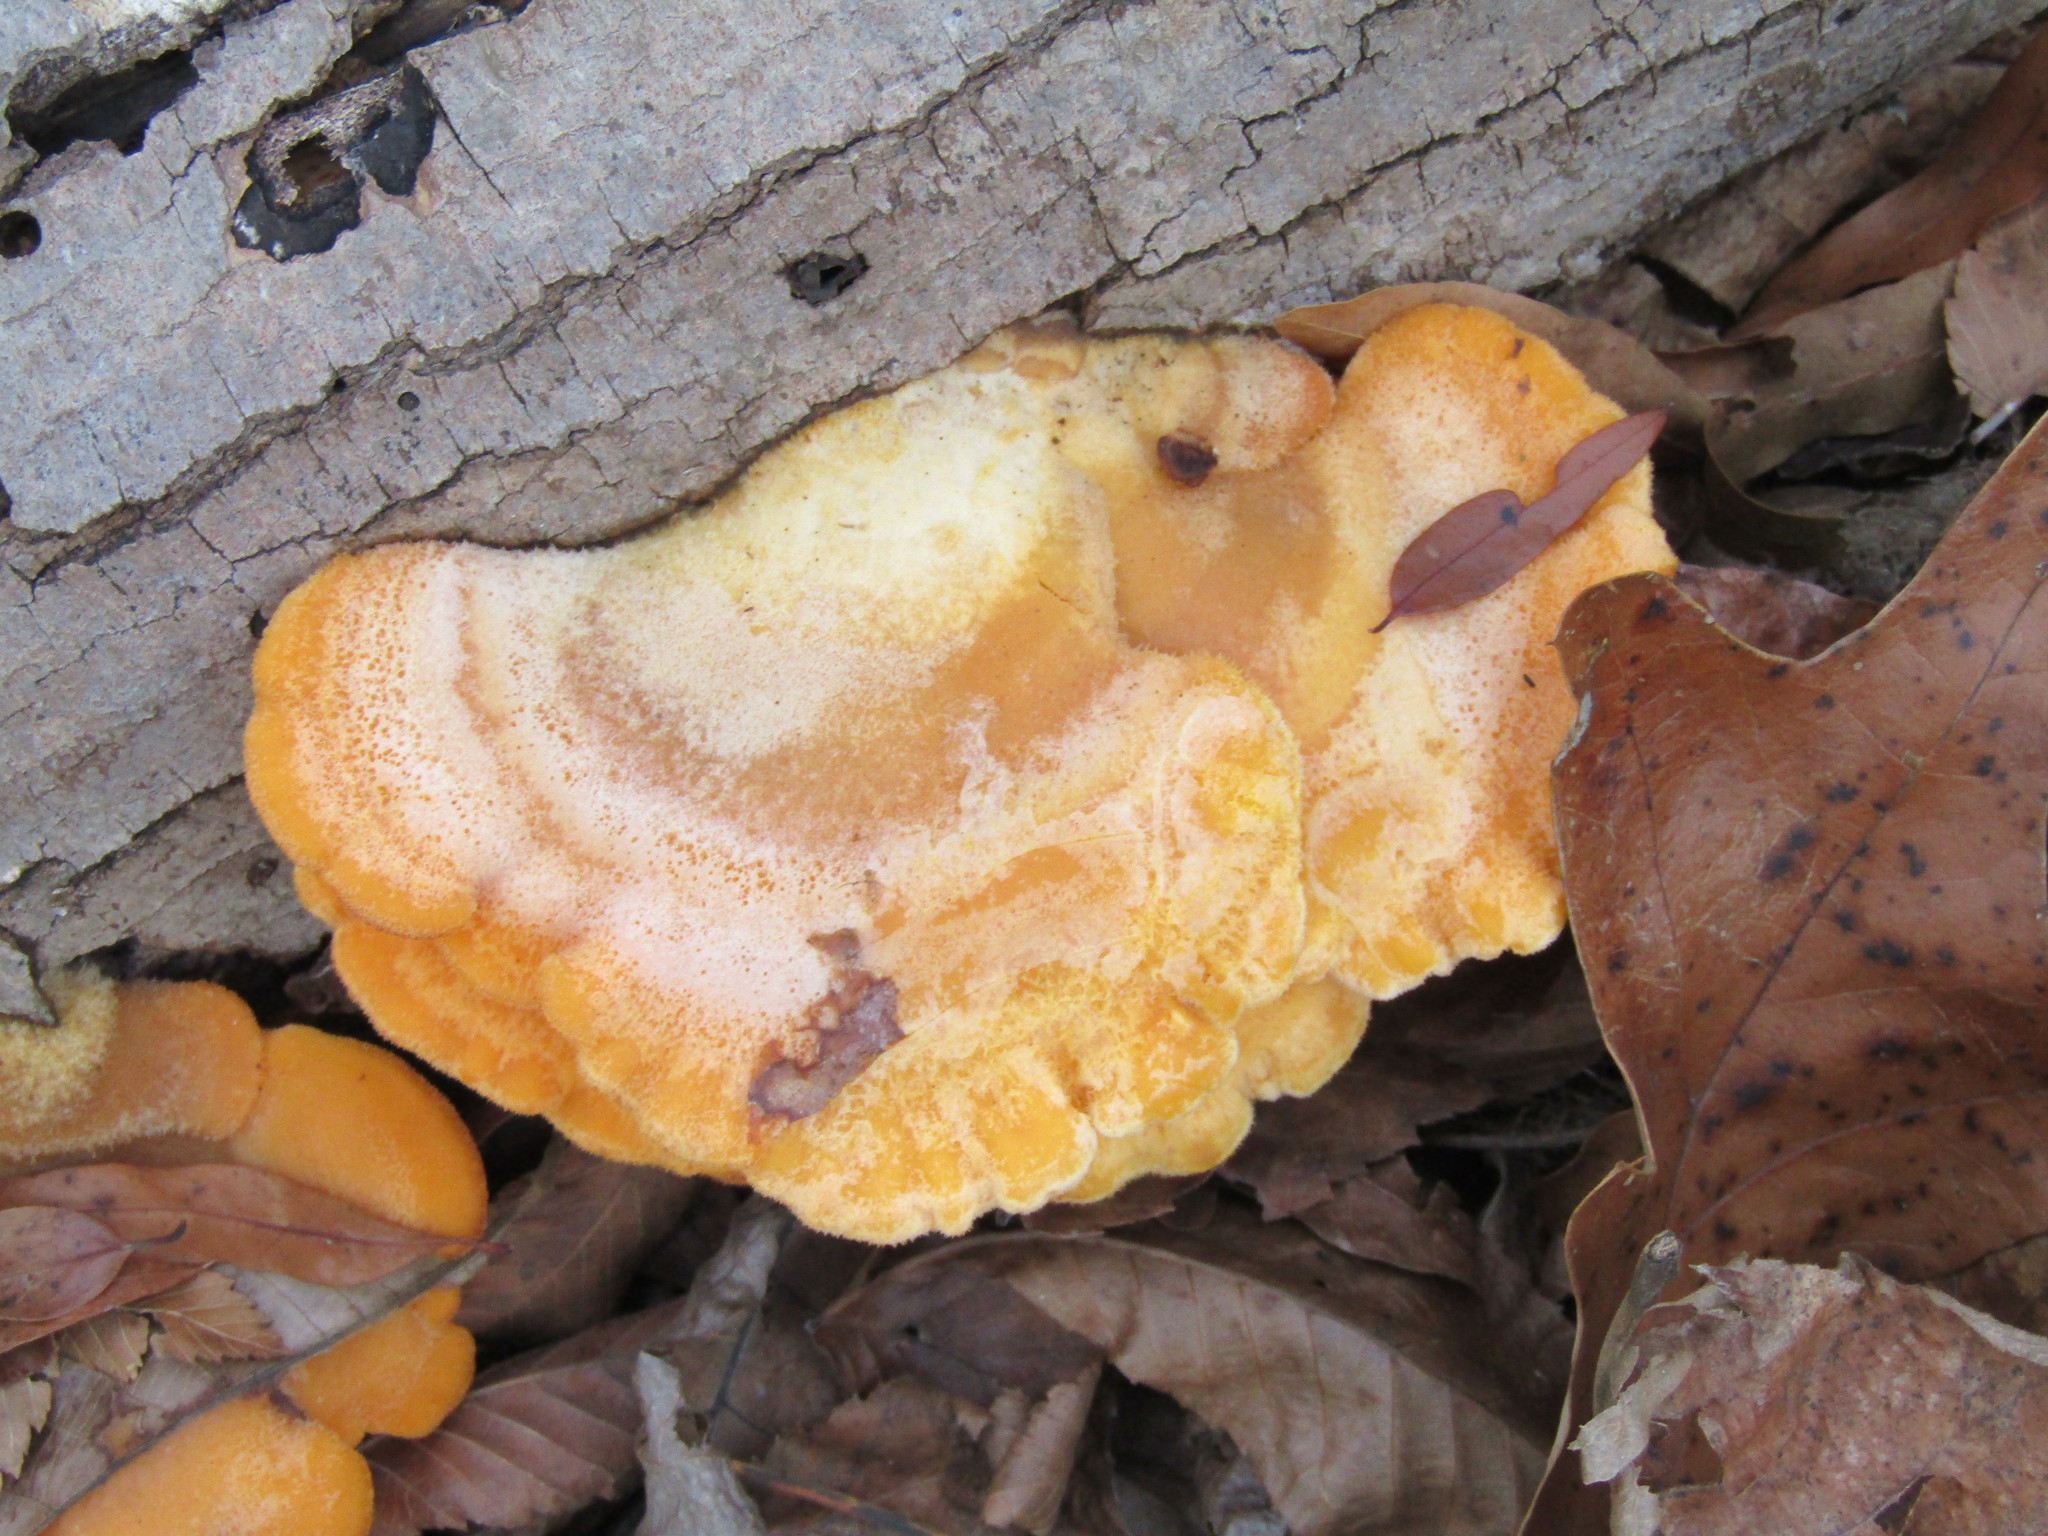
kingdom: Fungi
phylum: Basidiomycota
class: Agaricomycetes
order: Agaricales
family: Phyllotopsidaceae
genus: Phyllotopsis
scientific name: Phyllotopsis nidulans
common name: Orange mock oyster
